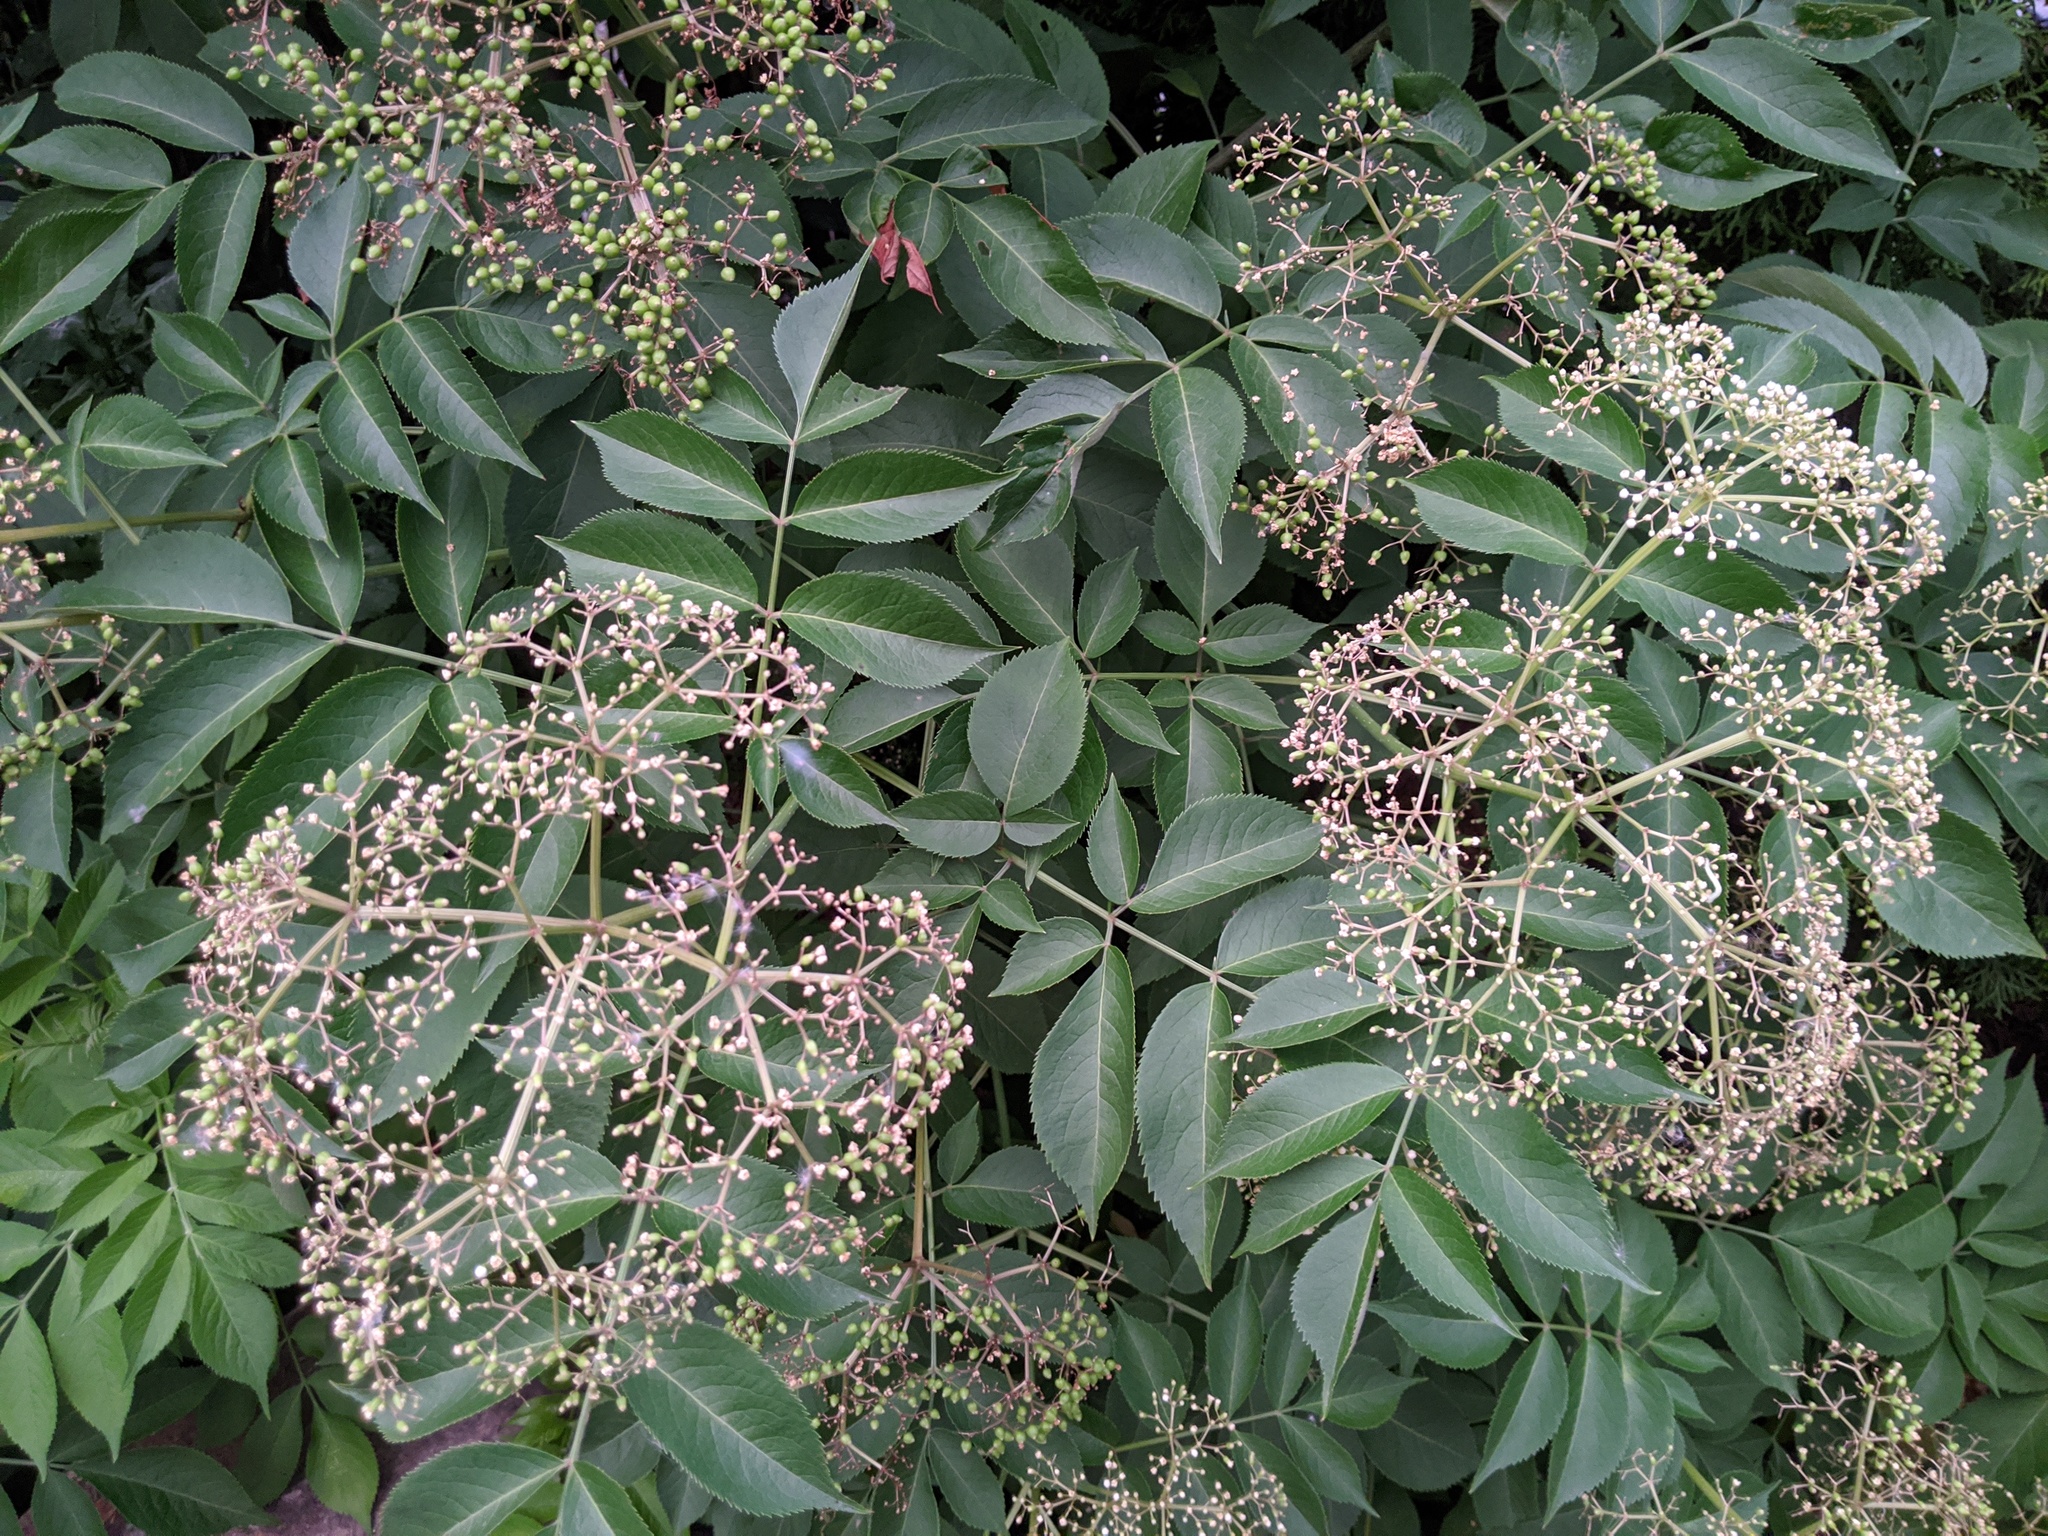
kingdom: Plantae
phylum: Tracheophyta
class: Magnoliopsida
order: Dipsacales
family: Viburnaceae
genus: Sambucus
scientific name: Sambucus canadensis
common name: American elder
